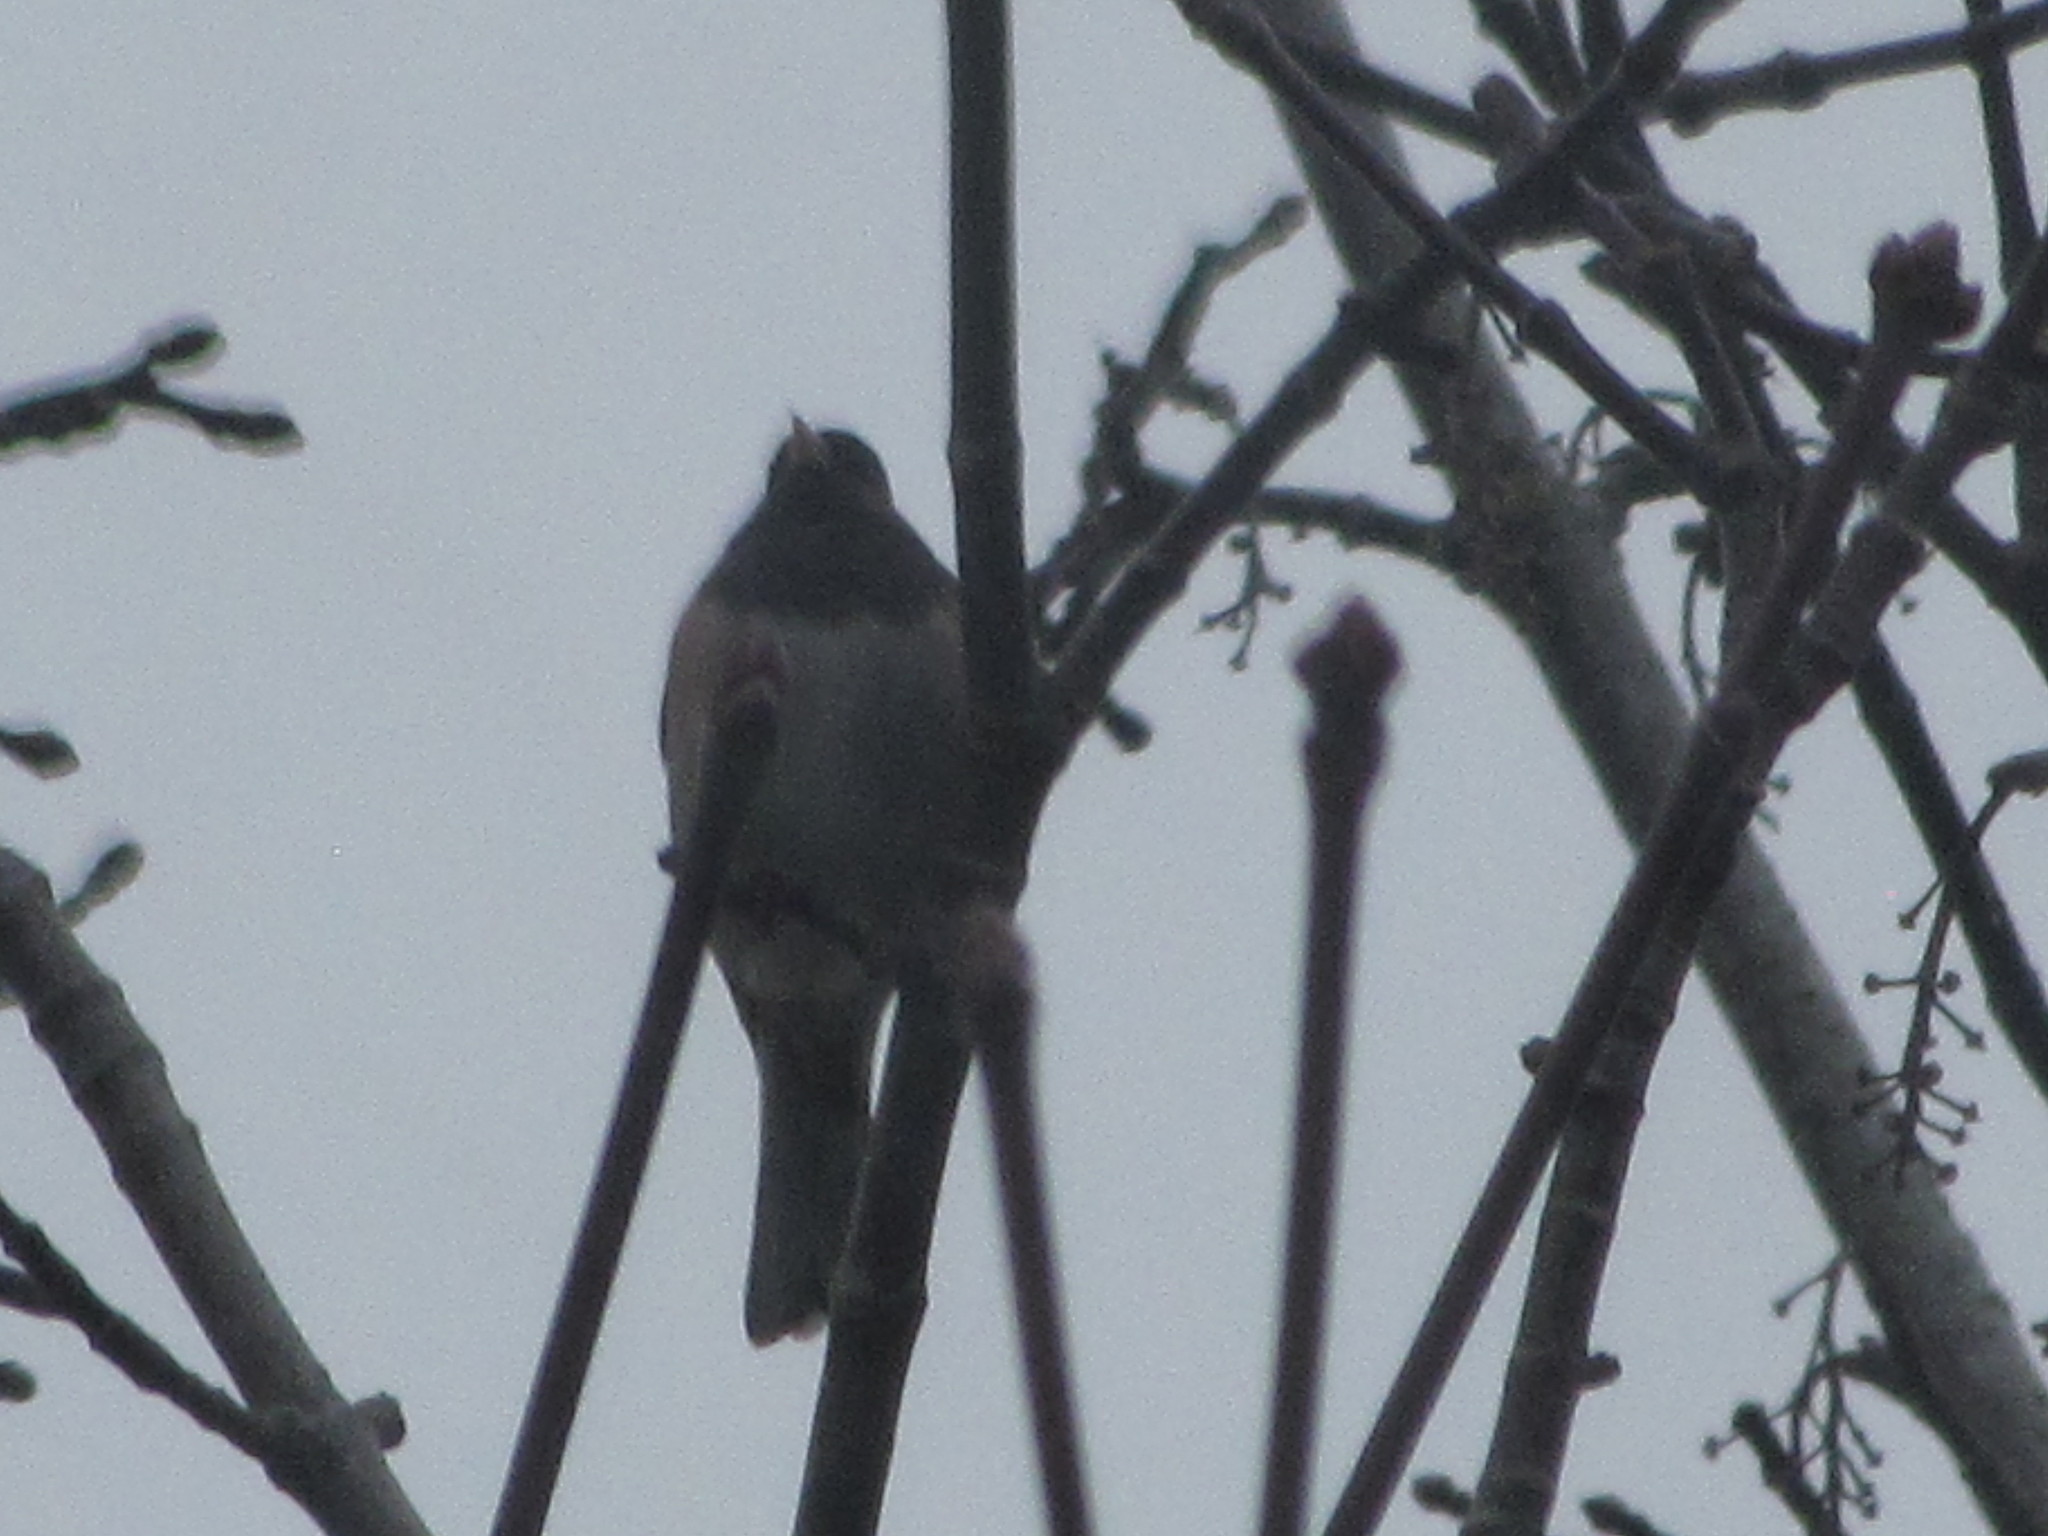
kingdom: Animalia
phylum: Chordata
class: Aves
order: Passeriformes
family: Passerellidae
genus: Junco
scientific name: Junco hyemalis
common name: Dark-eyed junco
